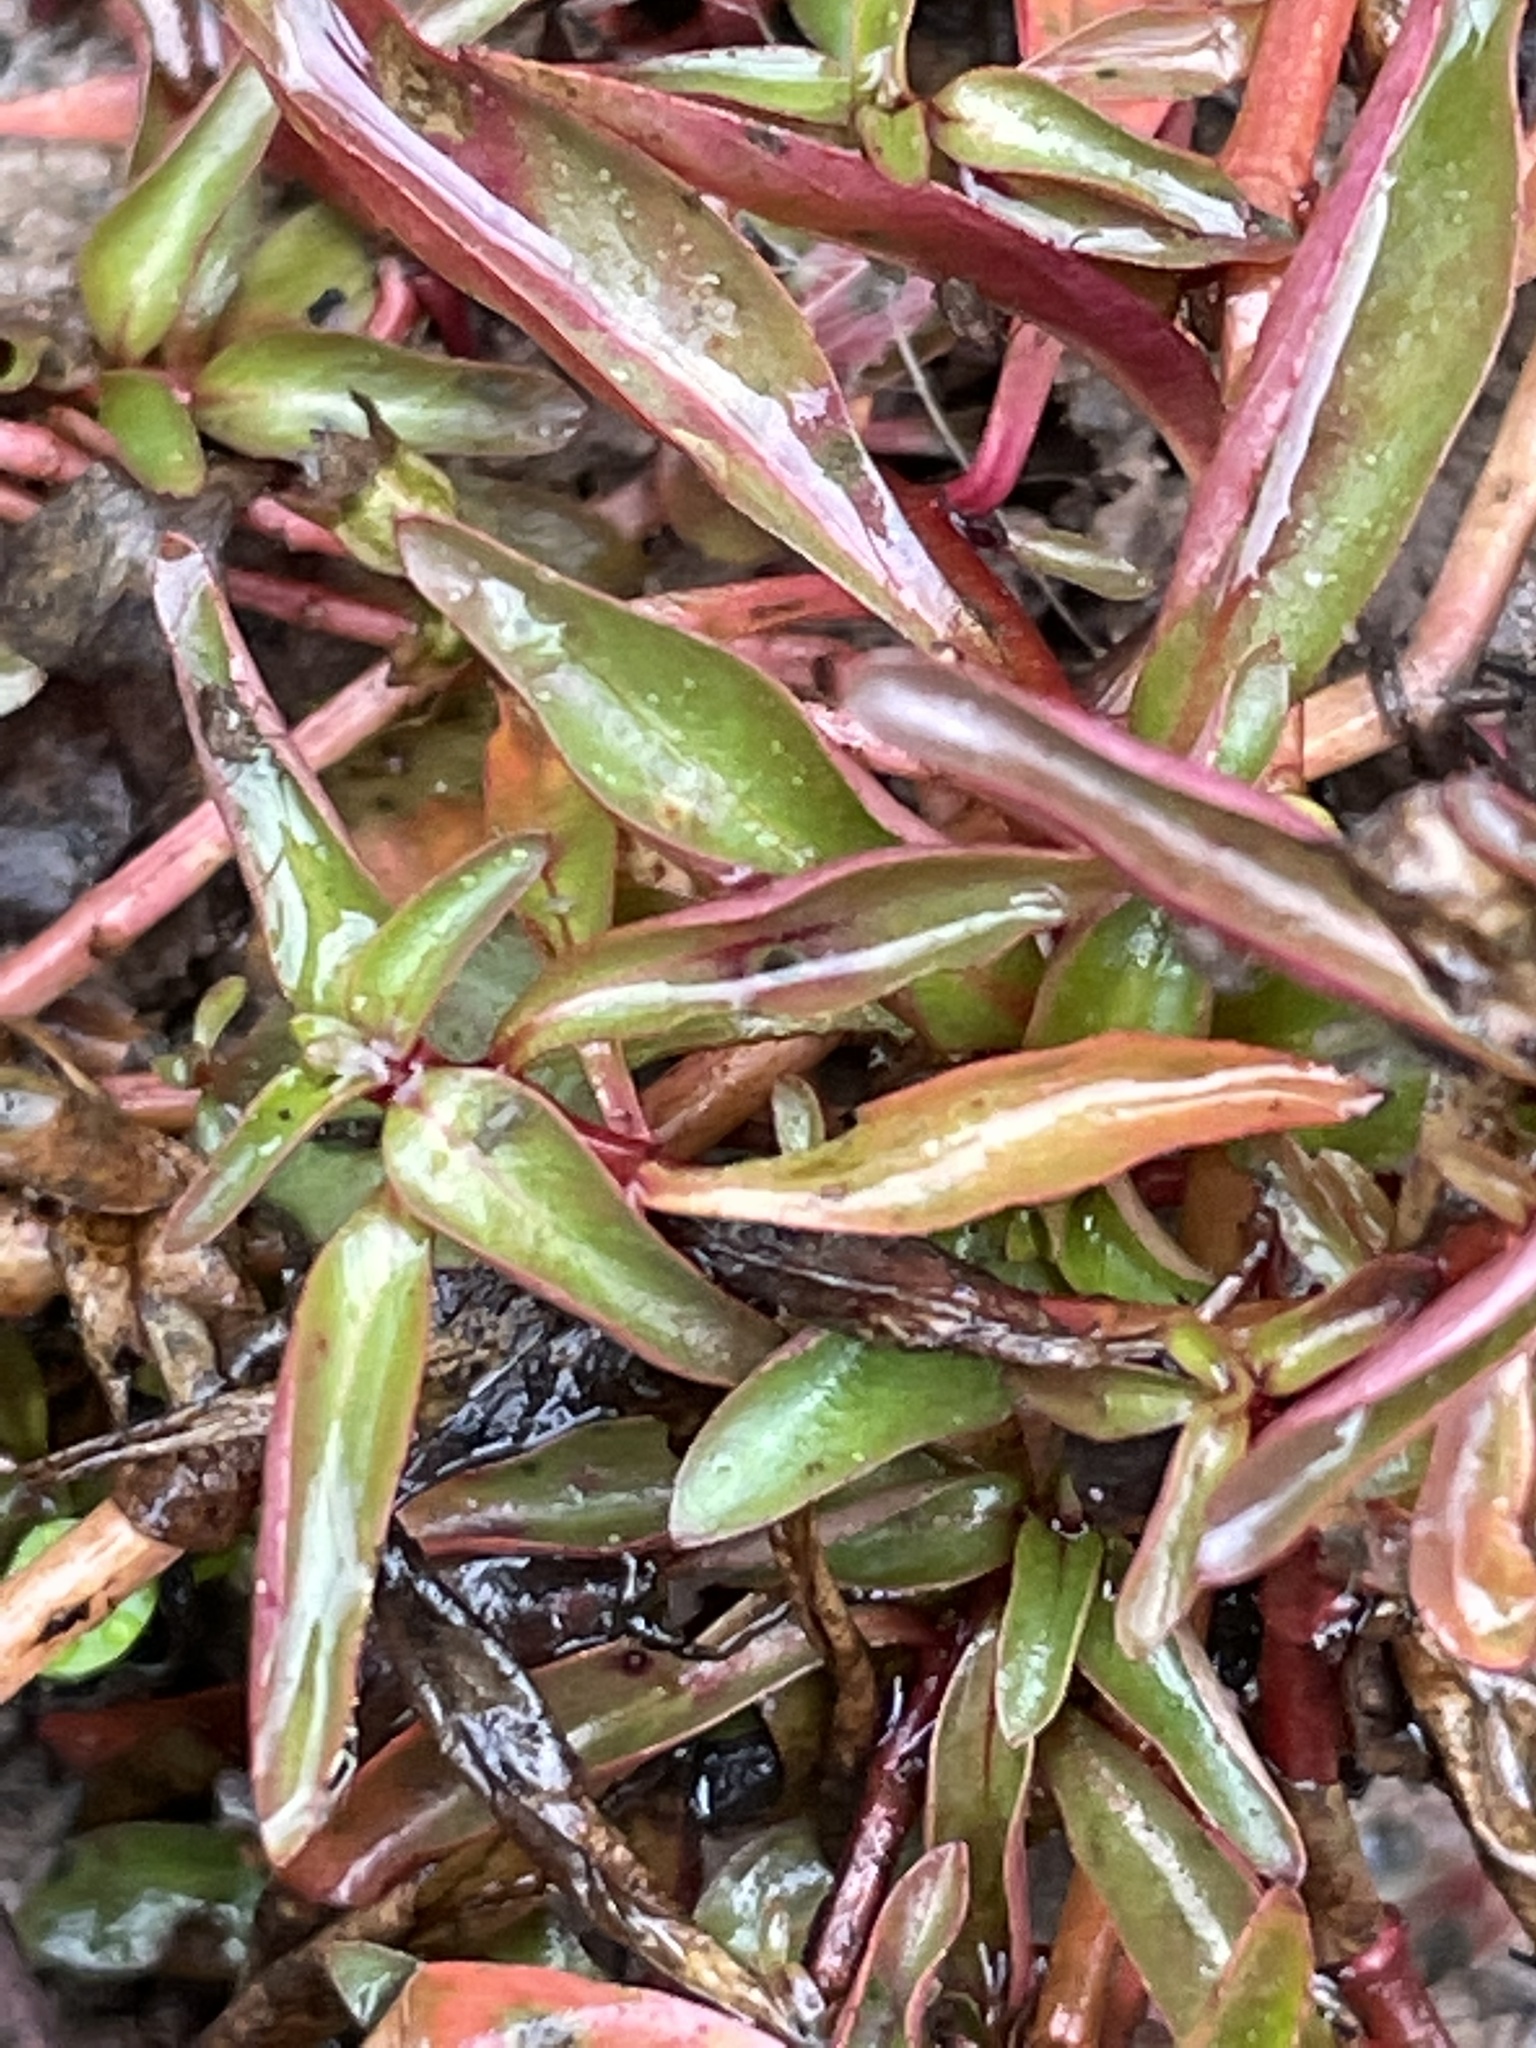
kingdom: Plantae
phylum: Tracheophyta
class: Magnoliopsida
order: Myrtales
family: Onagraceae
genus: Ludwigia
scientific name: Ludwigia palustris
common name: Hampshire-purslane
